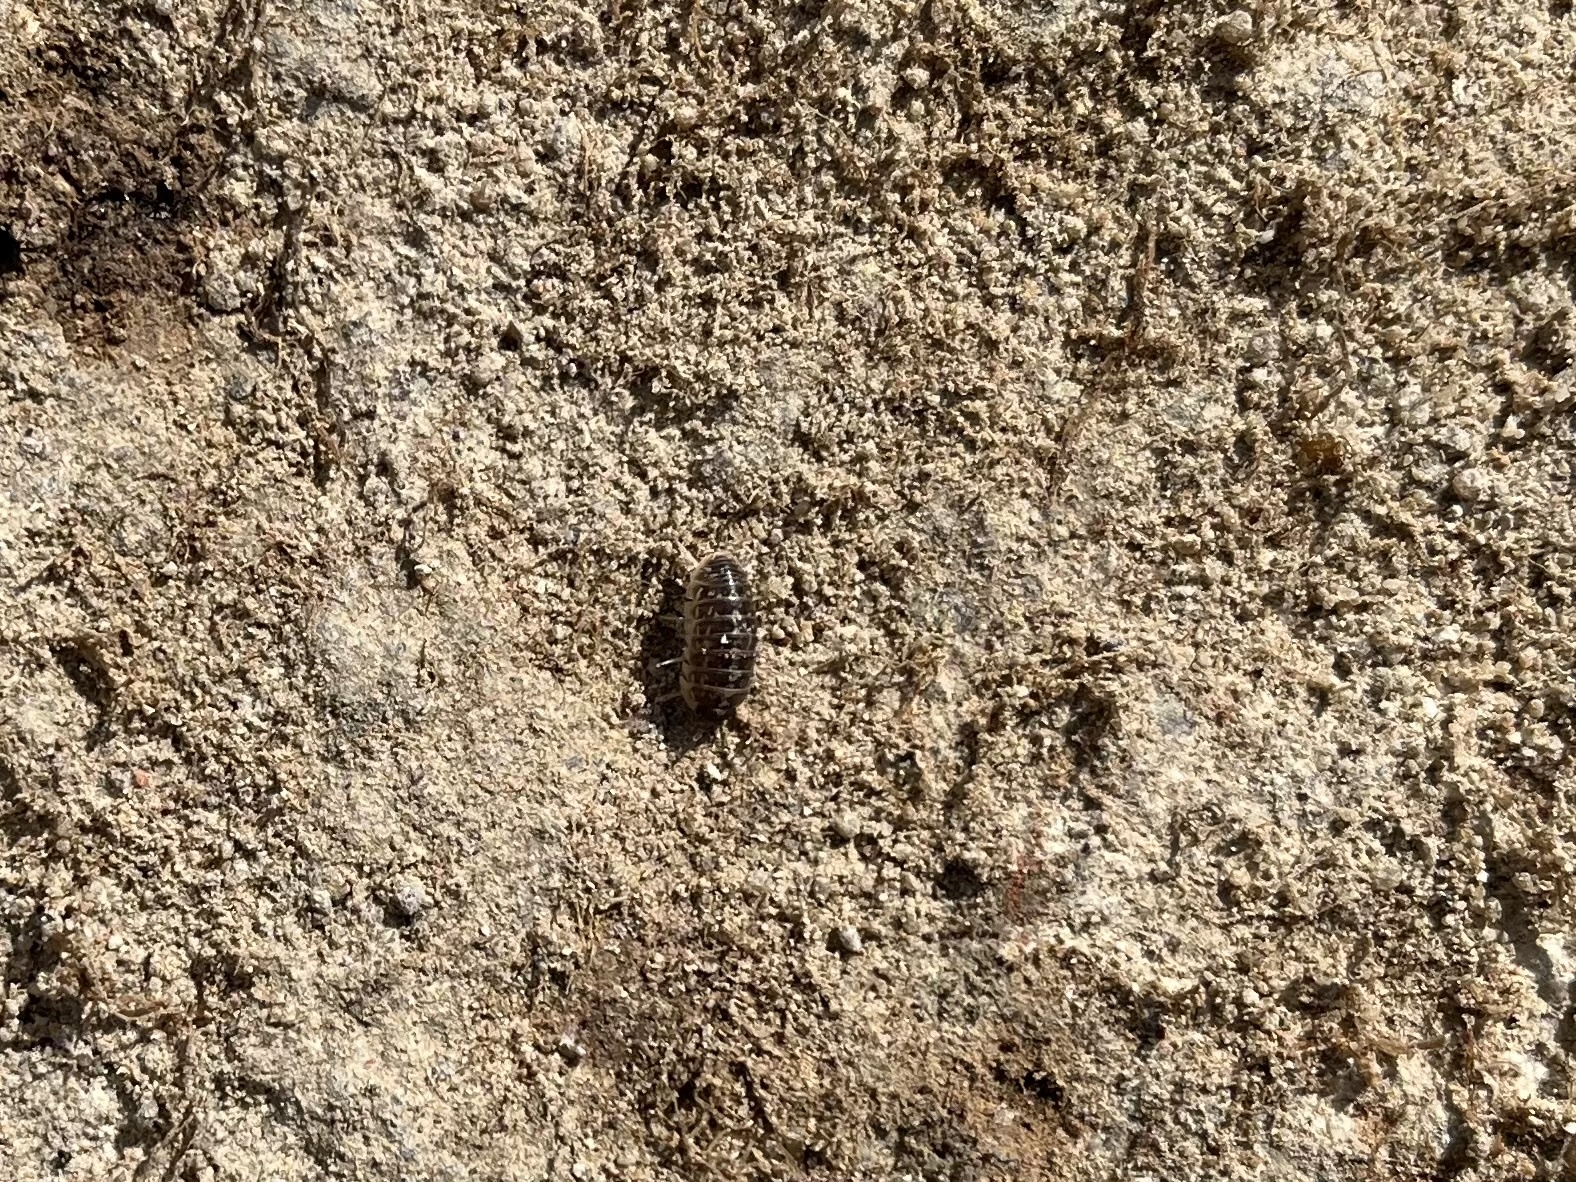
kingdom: Animalia
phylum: Arthropoda
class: Malacostraca
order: Isopoda
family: Armadillidiidae
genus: Armadillidium
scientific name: Armadillidium versicolor
